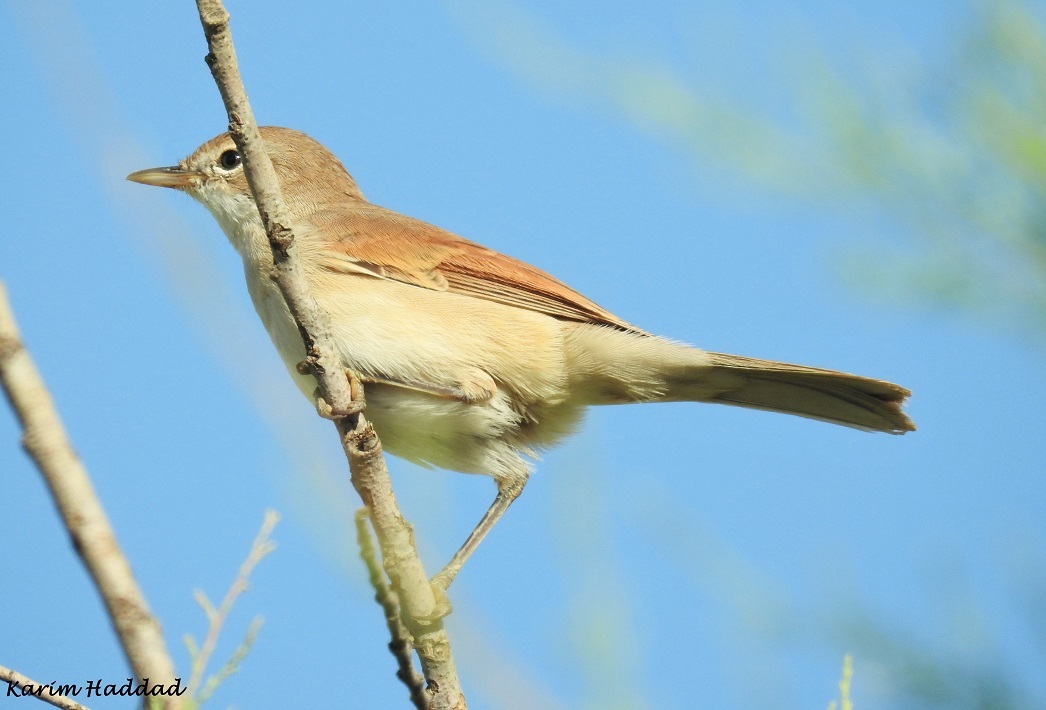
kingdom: Animalia
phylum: Chordata
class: Aves
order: Passeriformes
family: Sylviidae
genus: Sylvia
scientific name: Sylvia communis
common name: Common whitethroat
